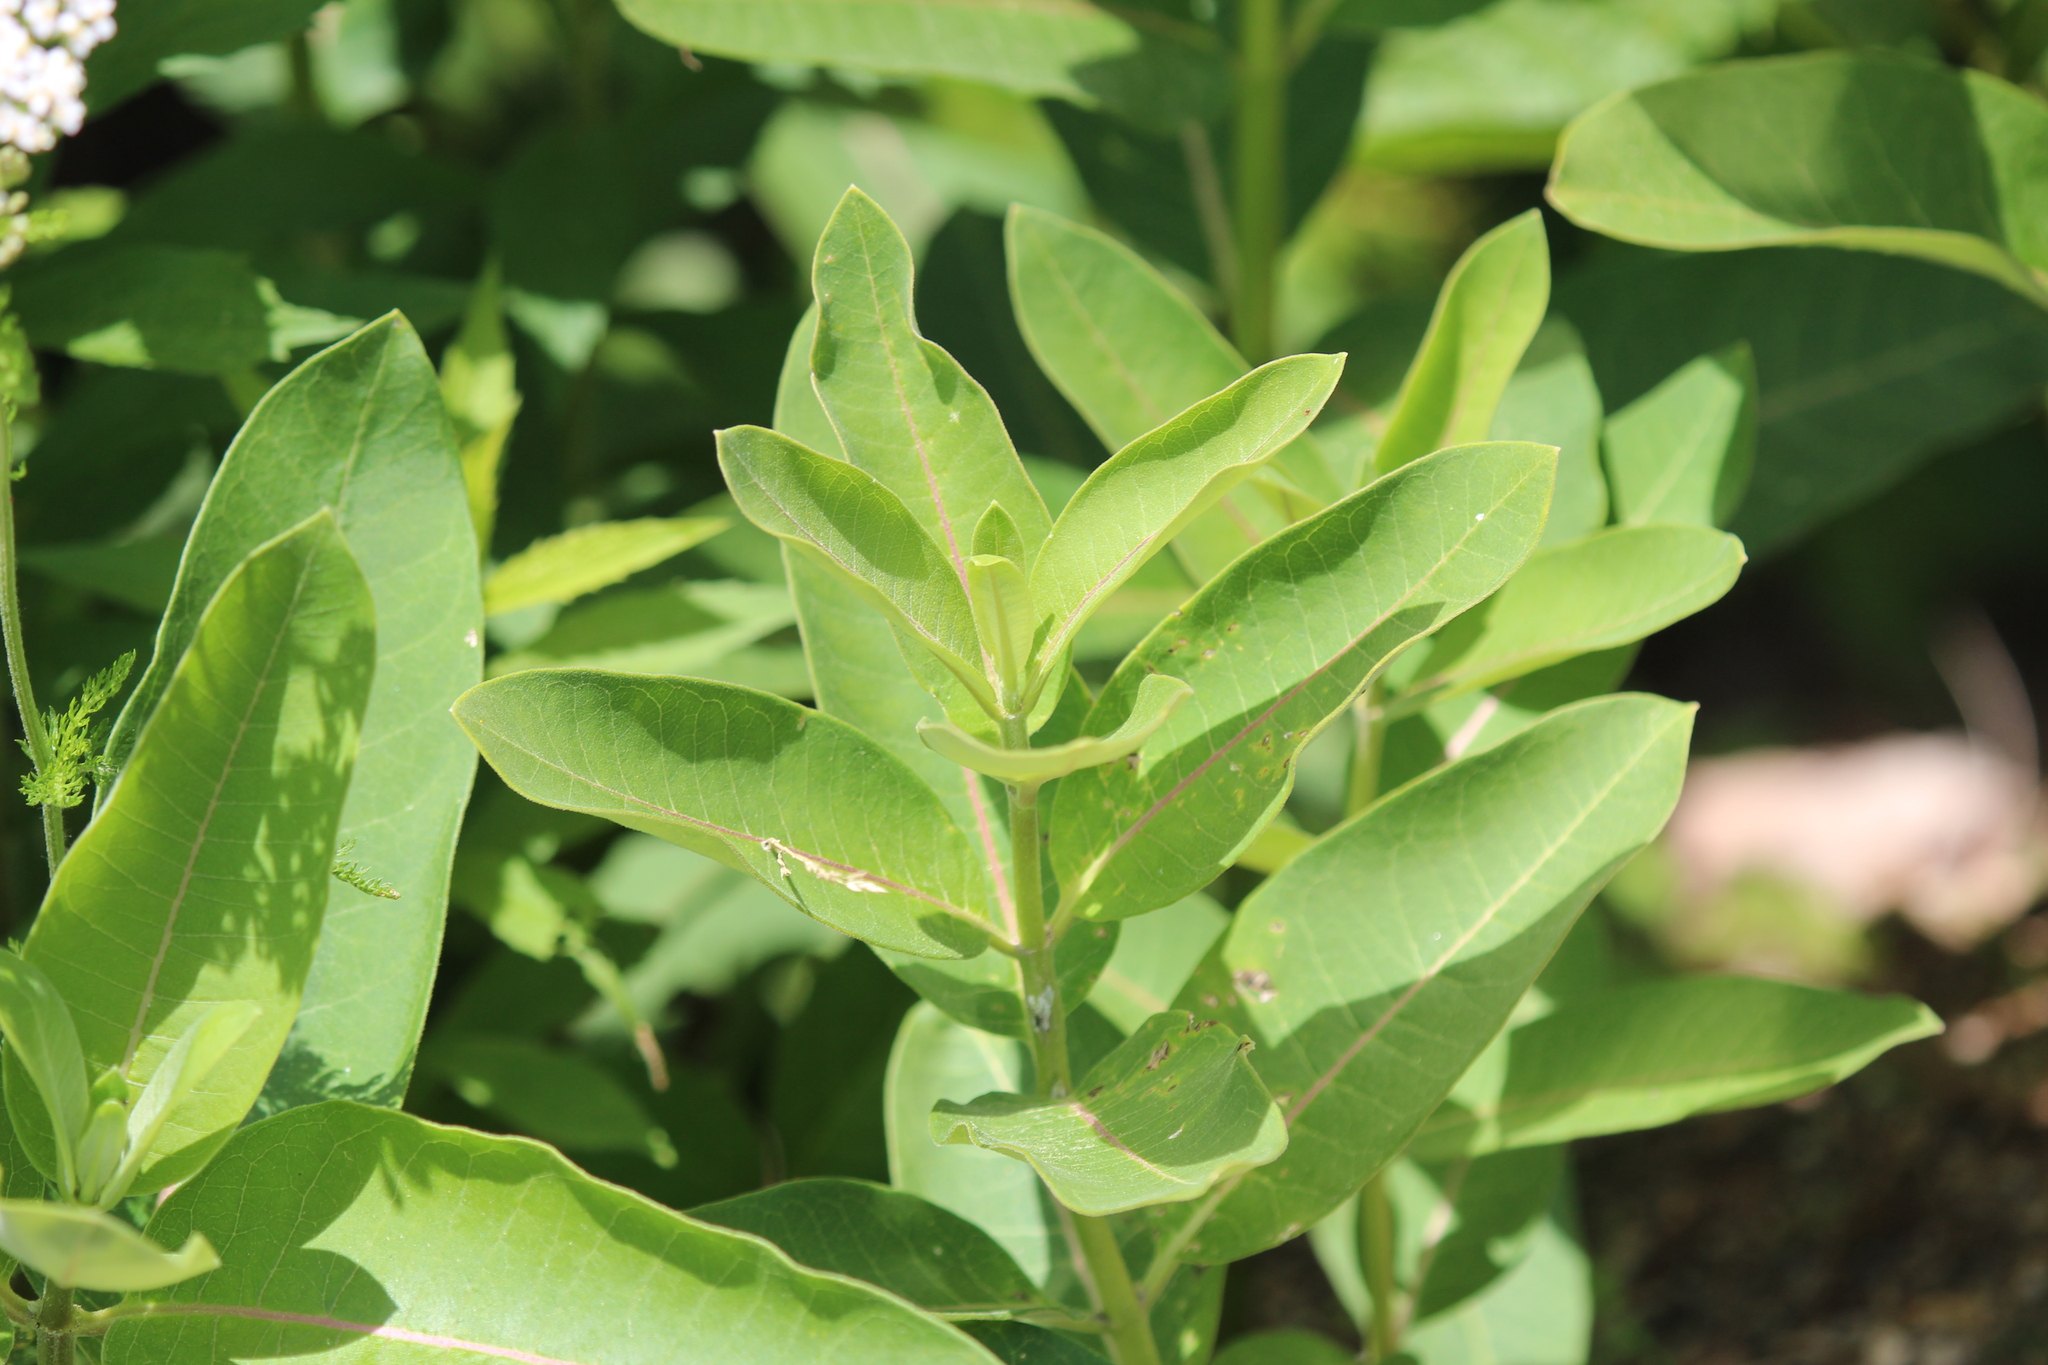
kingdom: Plantae
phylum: Tracheophyta
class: Magnoliopsida
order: Gentianales
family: Apocynaceae
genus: Asclepias
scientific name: Asclepias syriaca
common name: Common milkweed
